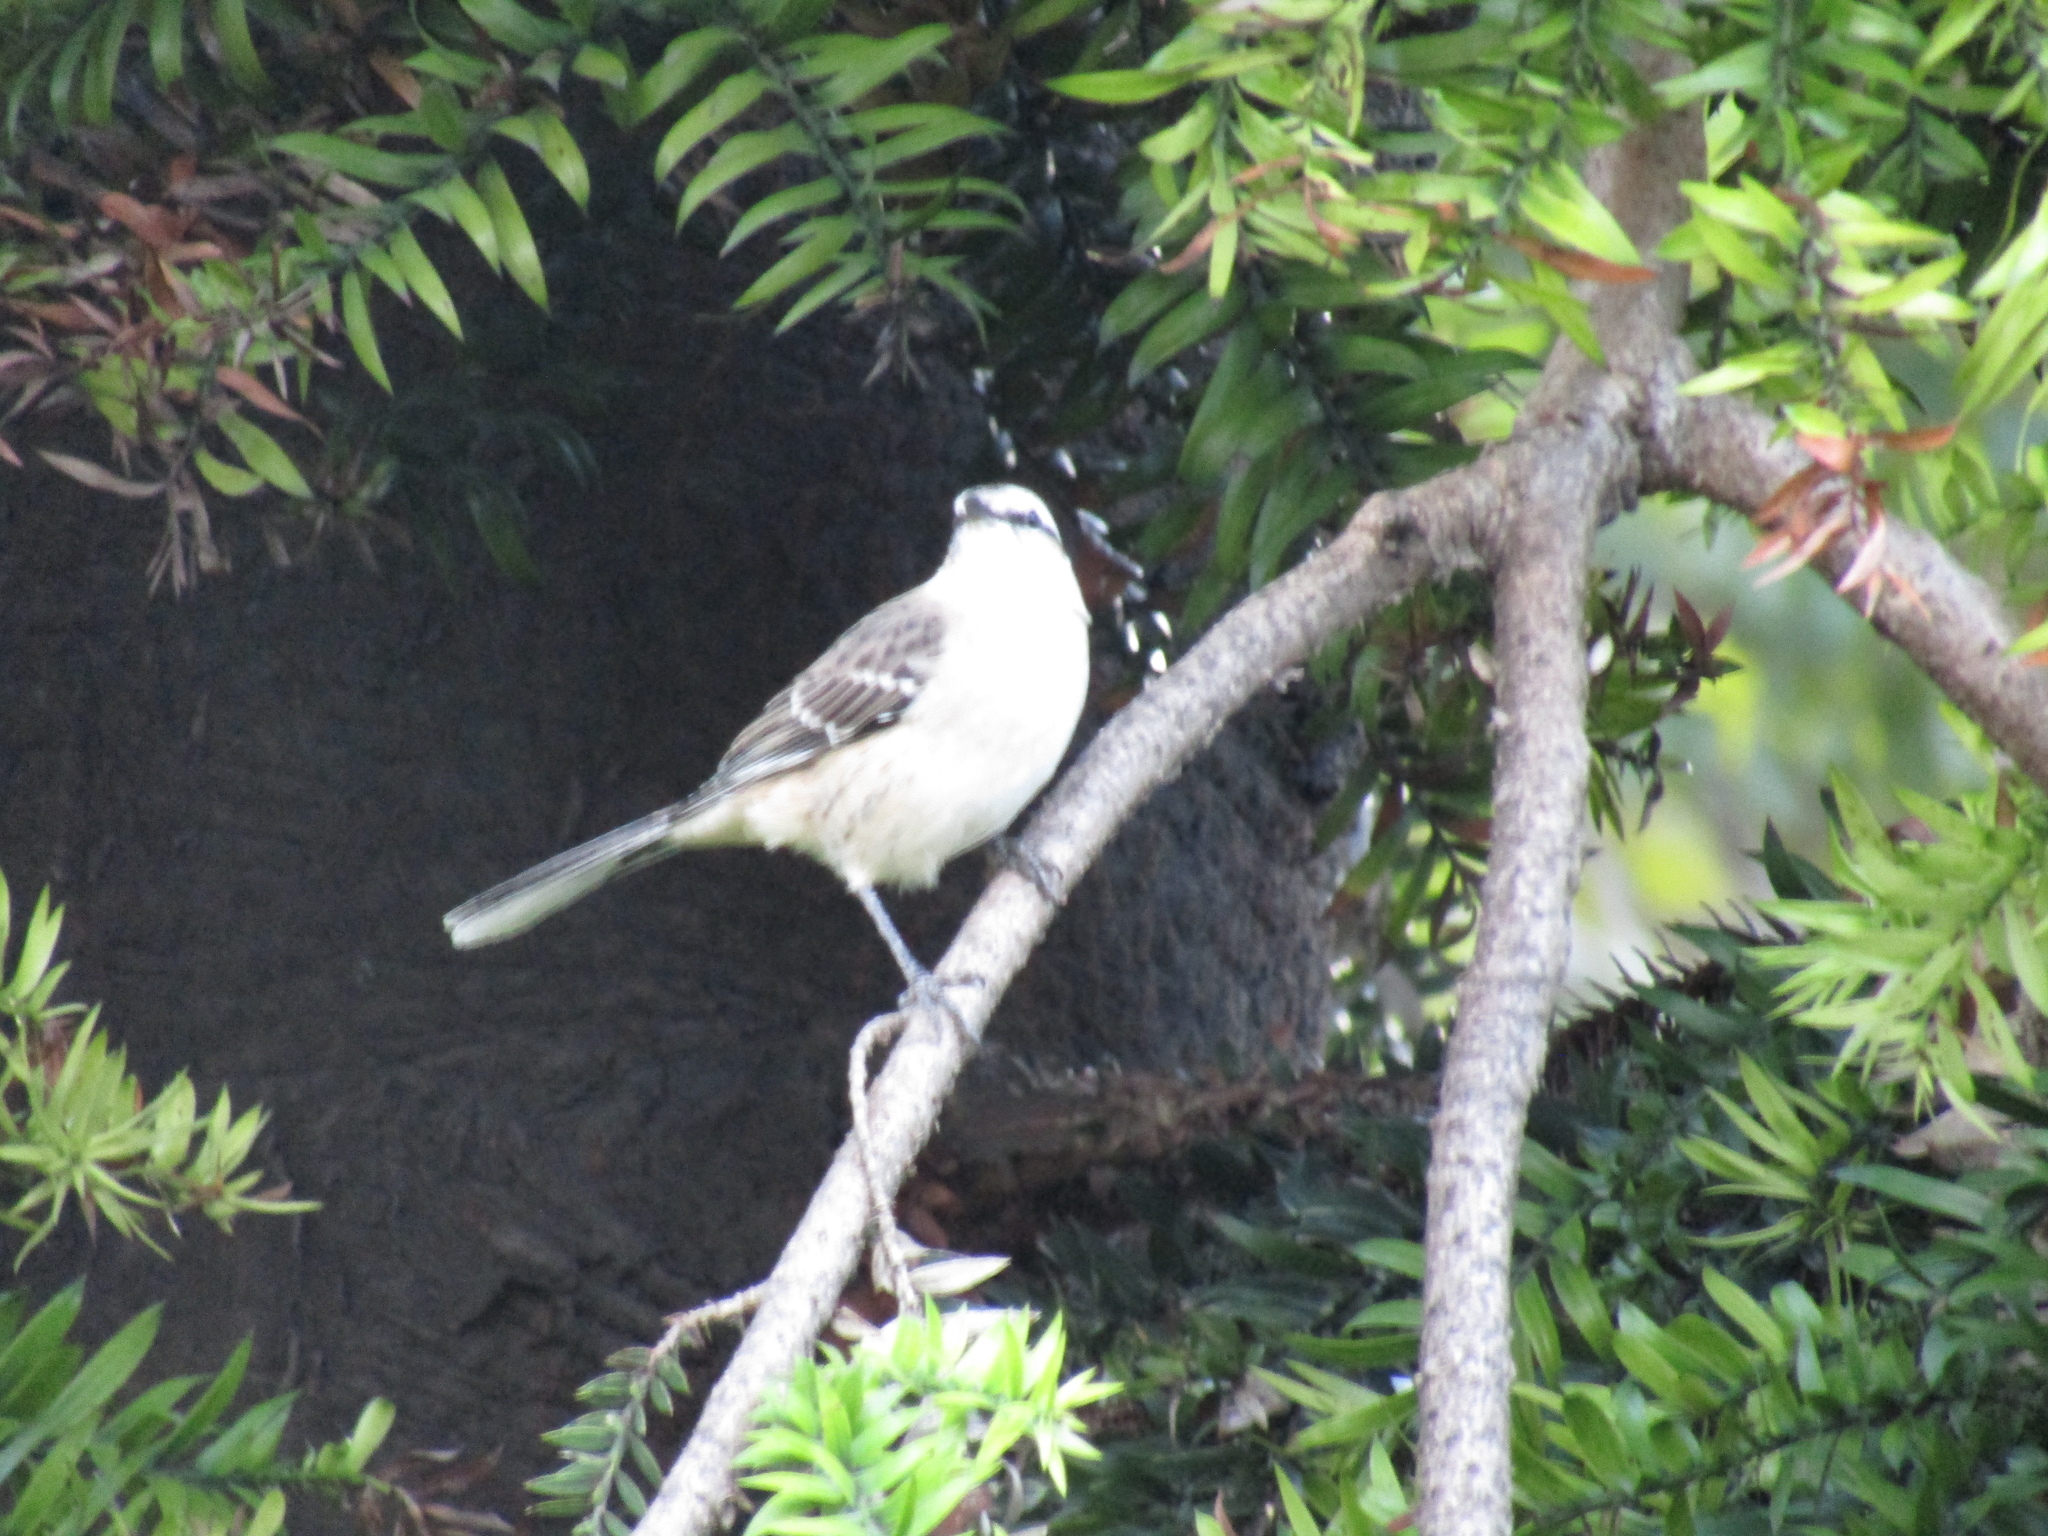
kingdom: Animalia
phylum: Chordata
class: Aves
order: Passeriformes
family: Mimidae
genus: Mimus
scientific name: Mimus saturninus
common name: Chalk-browed mockingbird
